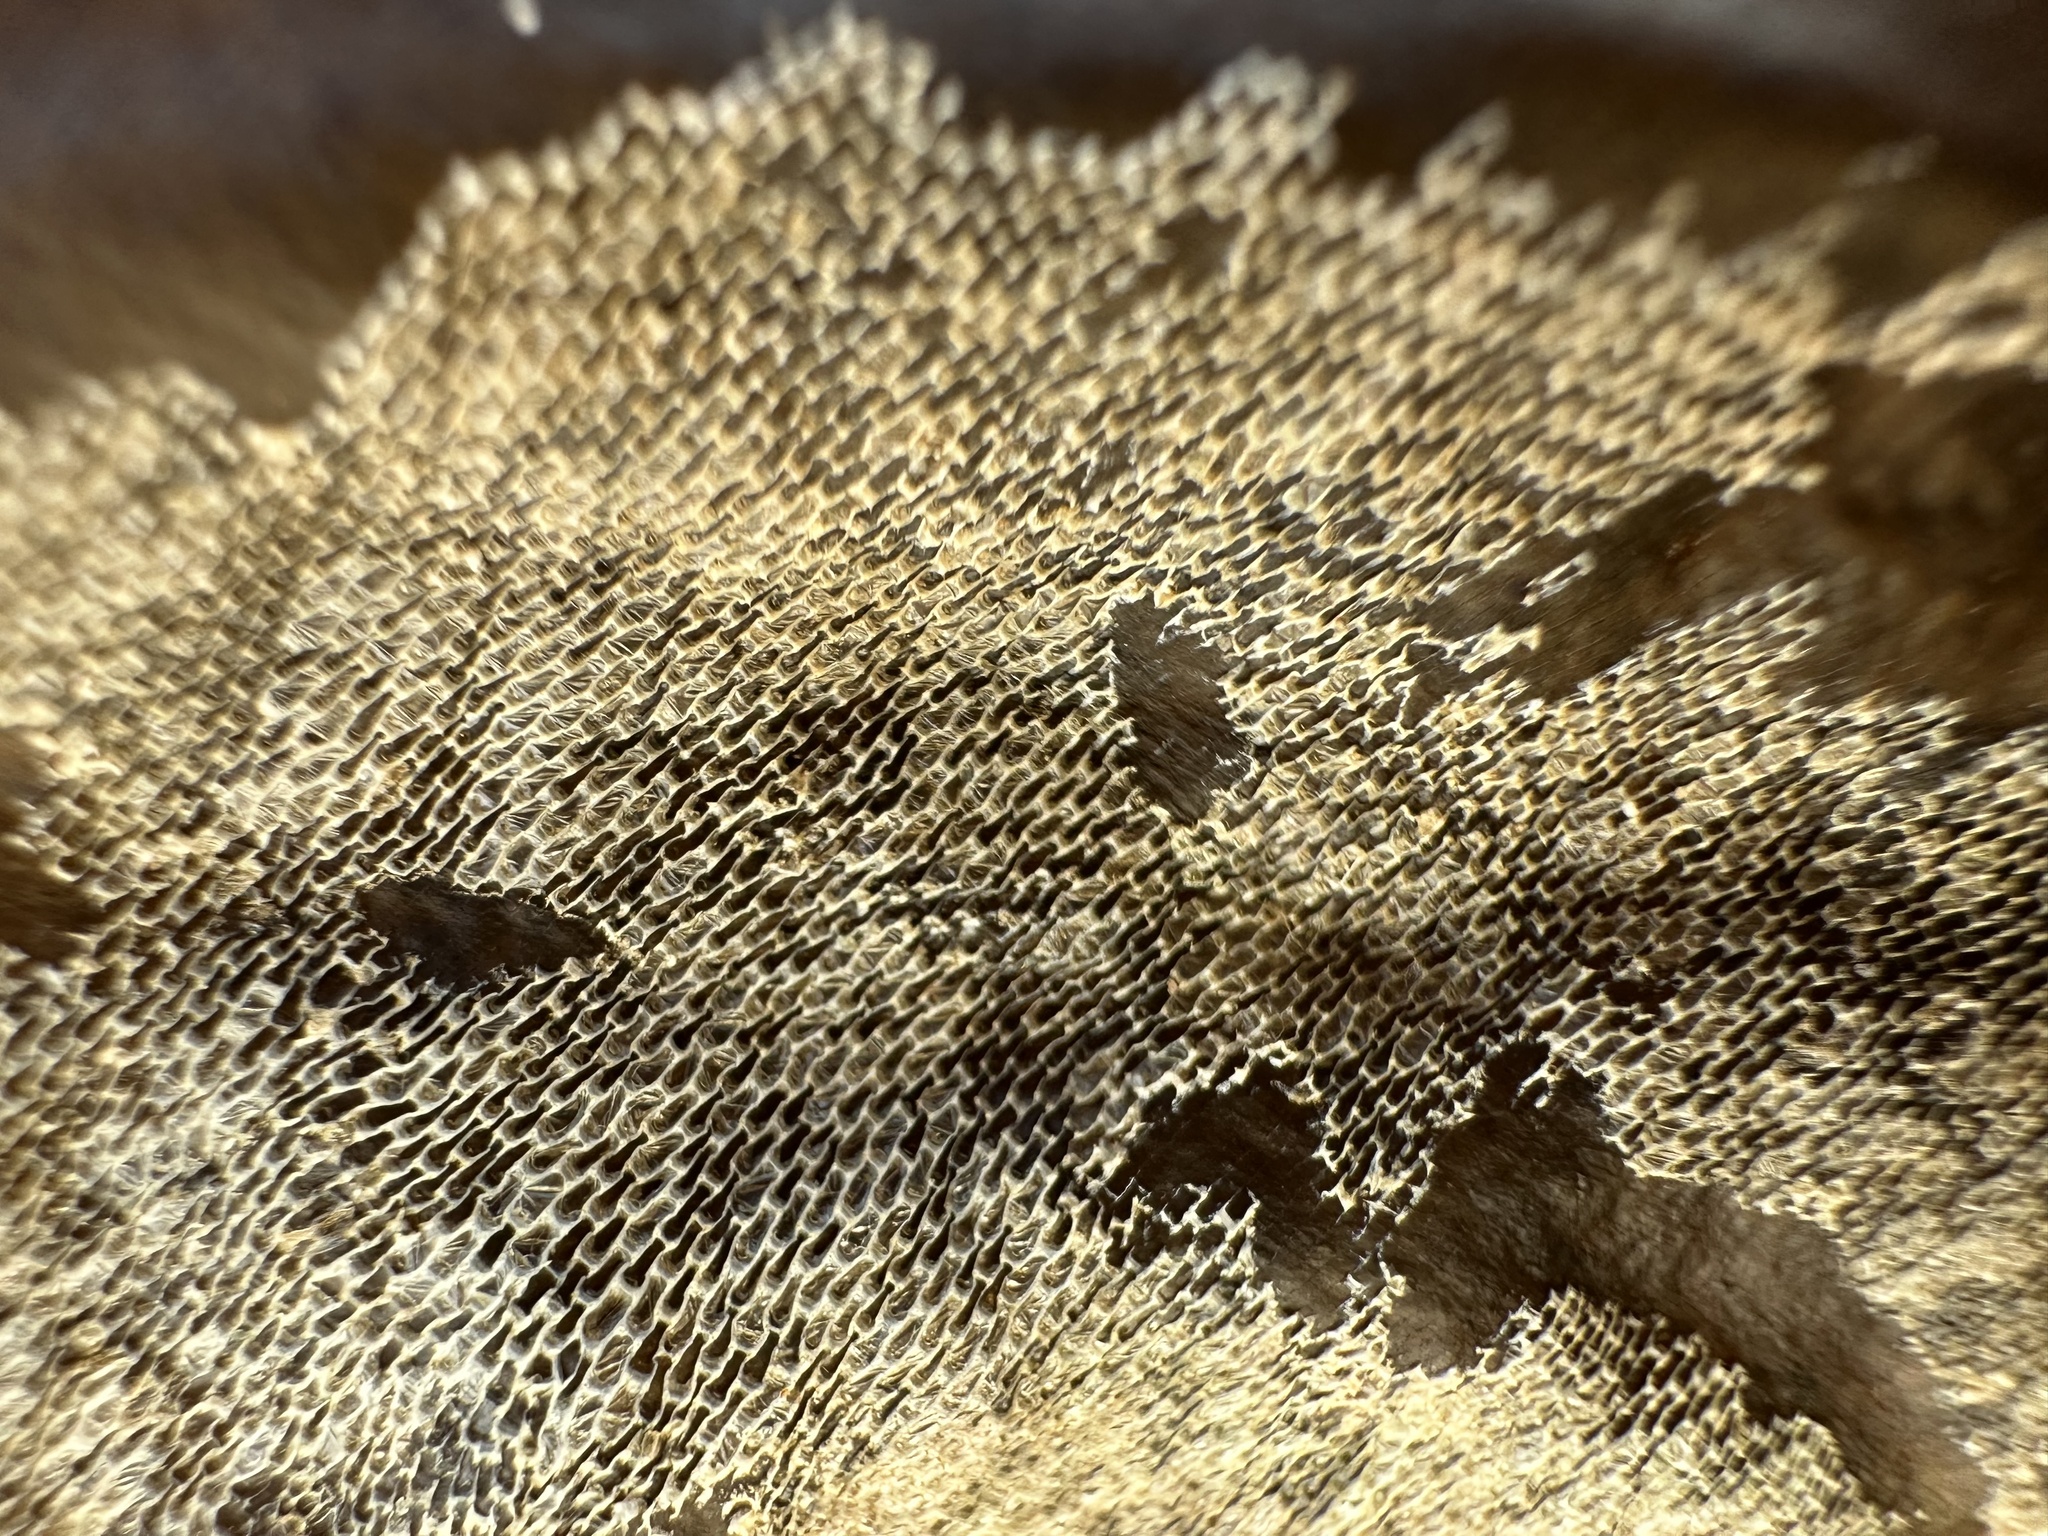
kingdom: Animalia
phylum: Bryozoa
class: Gymnolaemata
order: Cheilostomatida
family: Membraniporidae
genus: Membranipora
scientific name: Membranipora membranacea
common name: Sea mat
